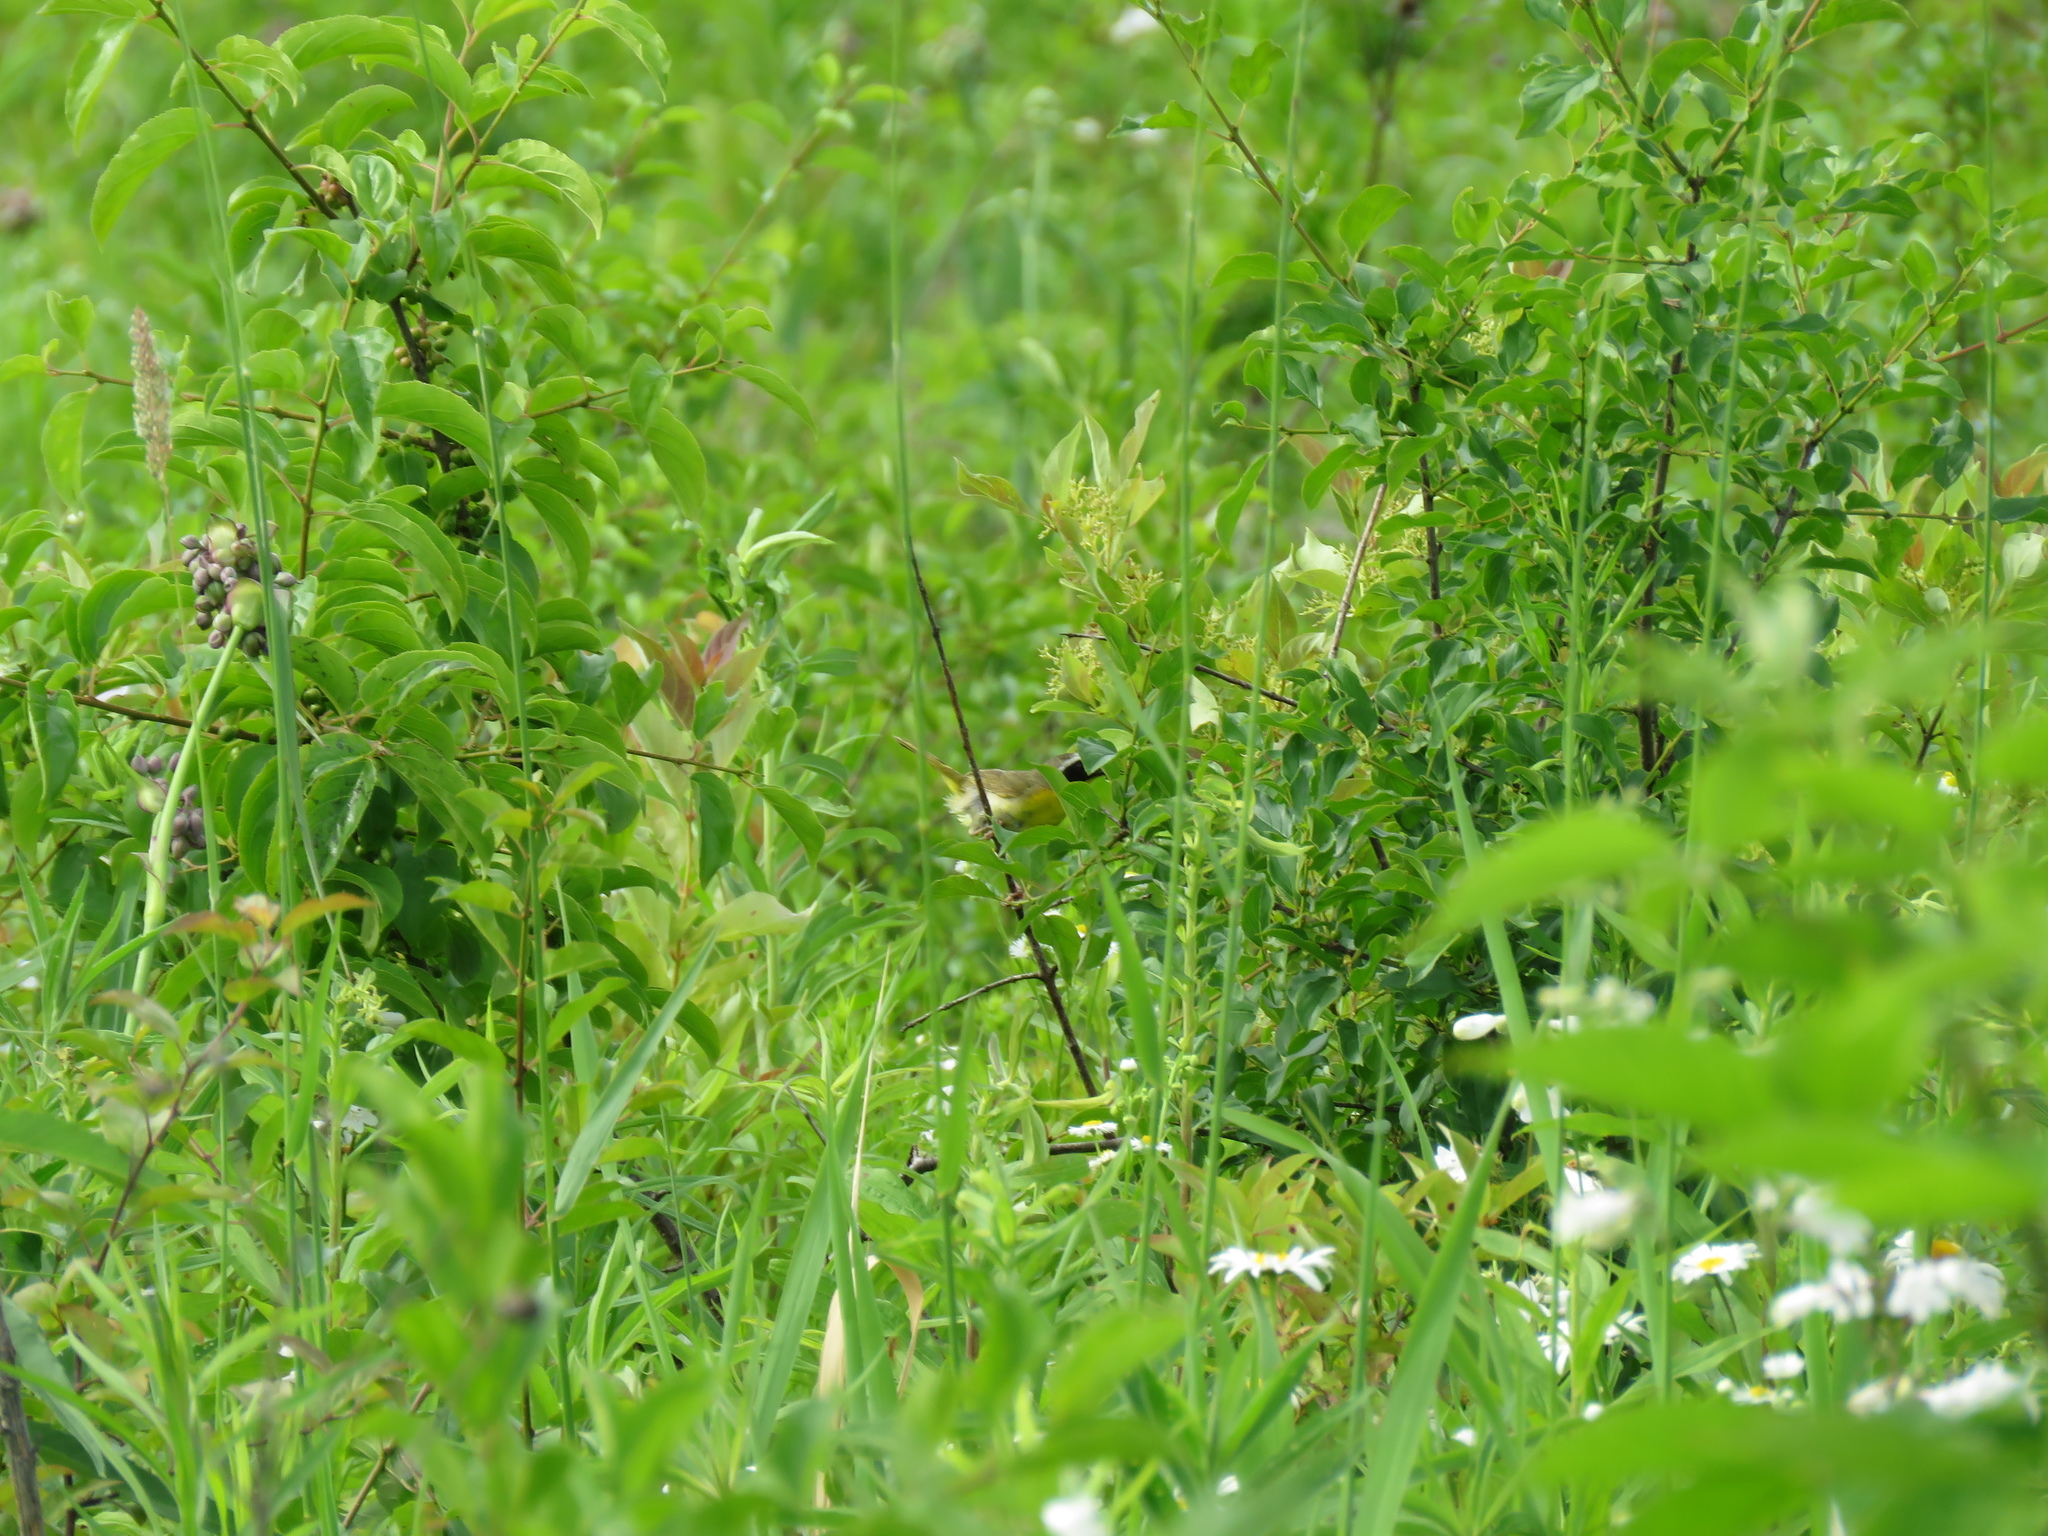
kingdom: Animalia
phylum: Chordata
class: Aves
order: Passeriformes
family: Parulidae
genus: Geothlypis
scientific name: Geothlypis trichas
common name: Common yellowthroat
